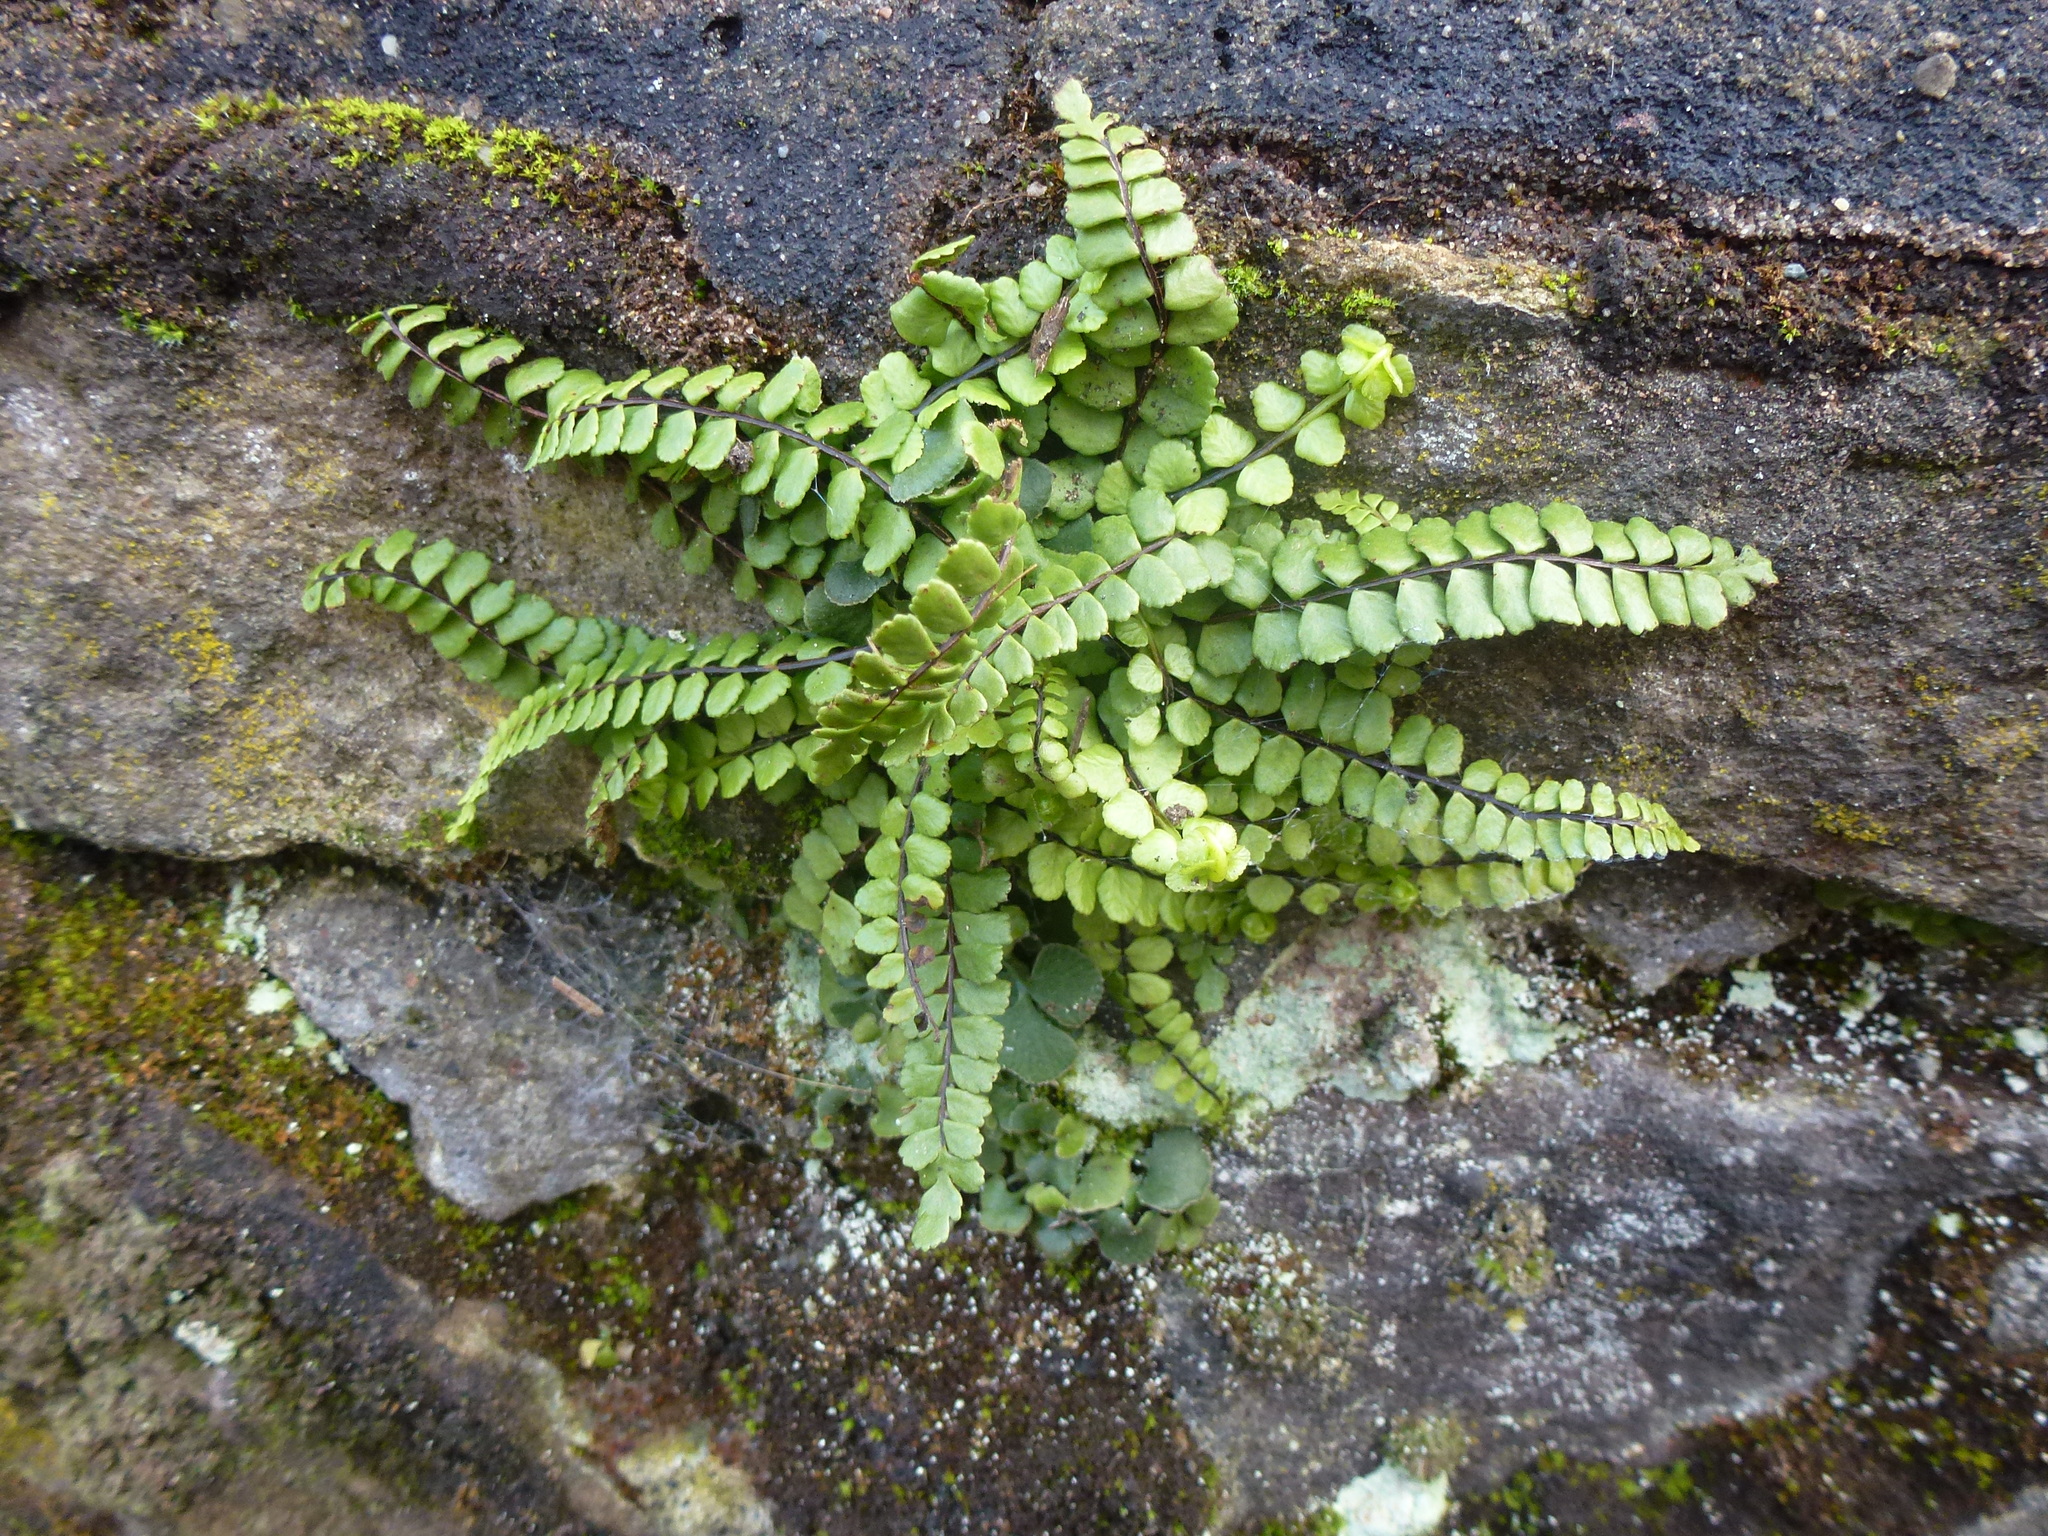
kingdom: Plantae
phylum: Tracheophyta
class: Polypodiopsida
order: Polypodiales
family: Aspleniaceae
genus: Asplenium
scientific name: Asplenium trichomanes
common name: Maidenhair spleenwort
